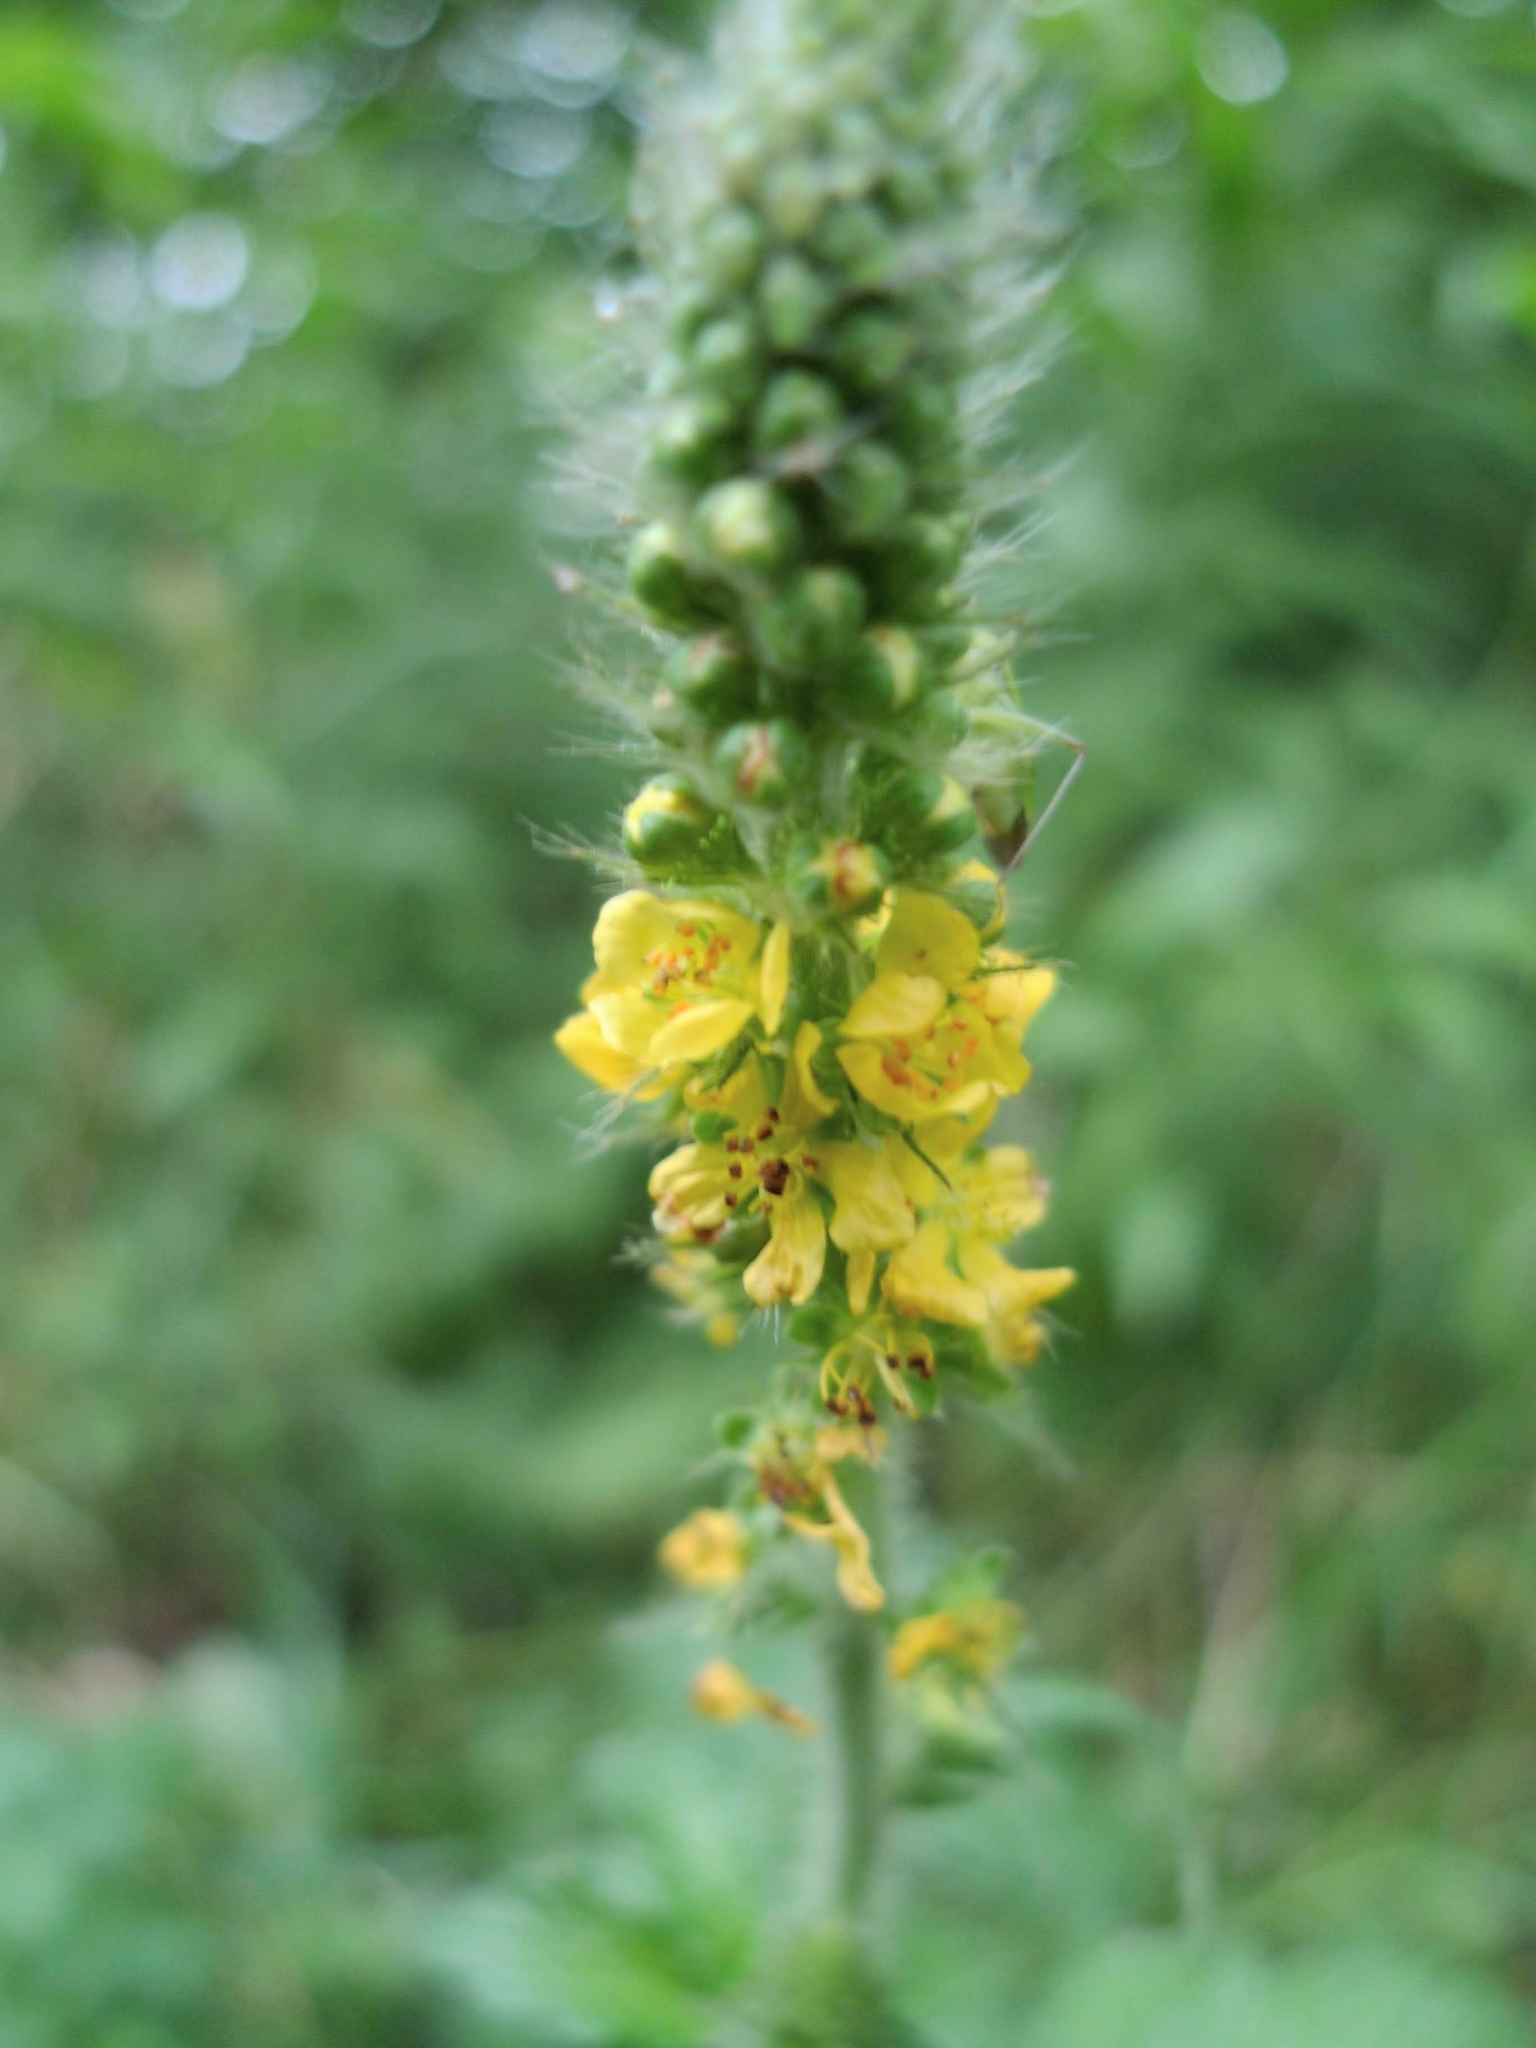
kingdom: Plantae
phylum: Tracheophyta
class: Magnoliopsida
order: Rosales
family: Rosaceae
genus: Agrimonia
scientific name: Agrimonia eupatoria
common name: Agrimony
